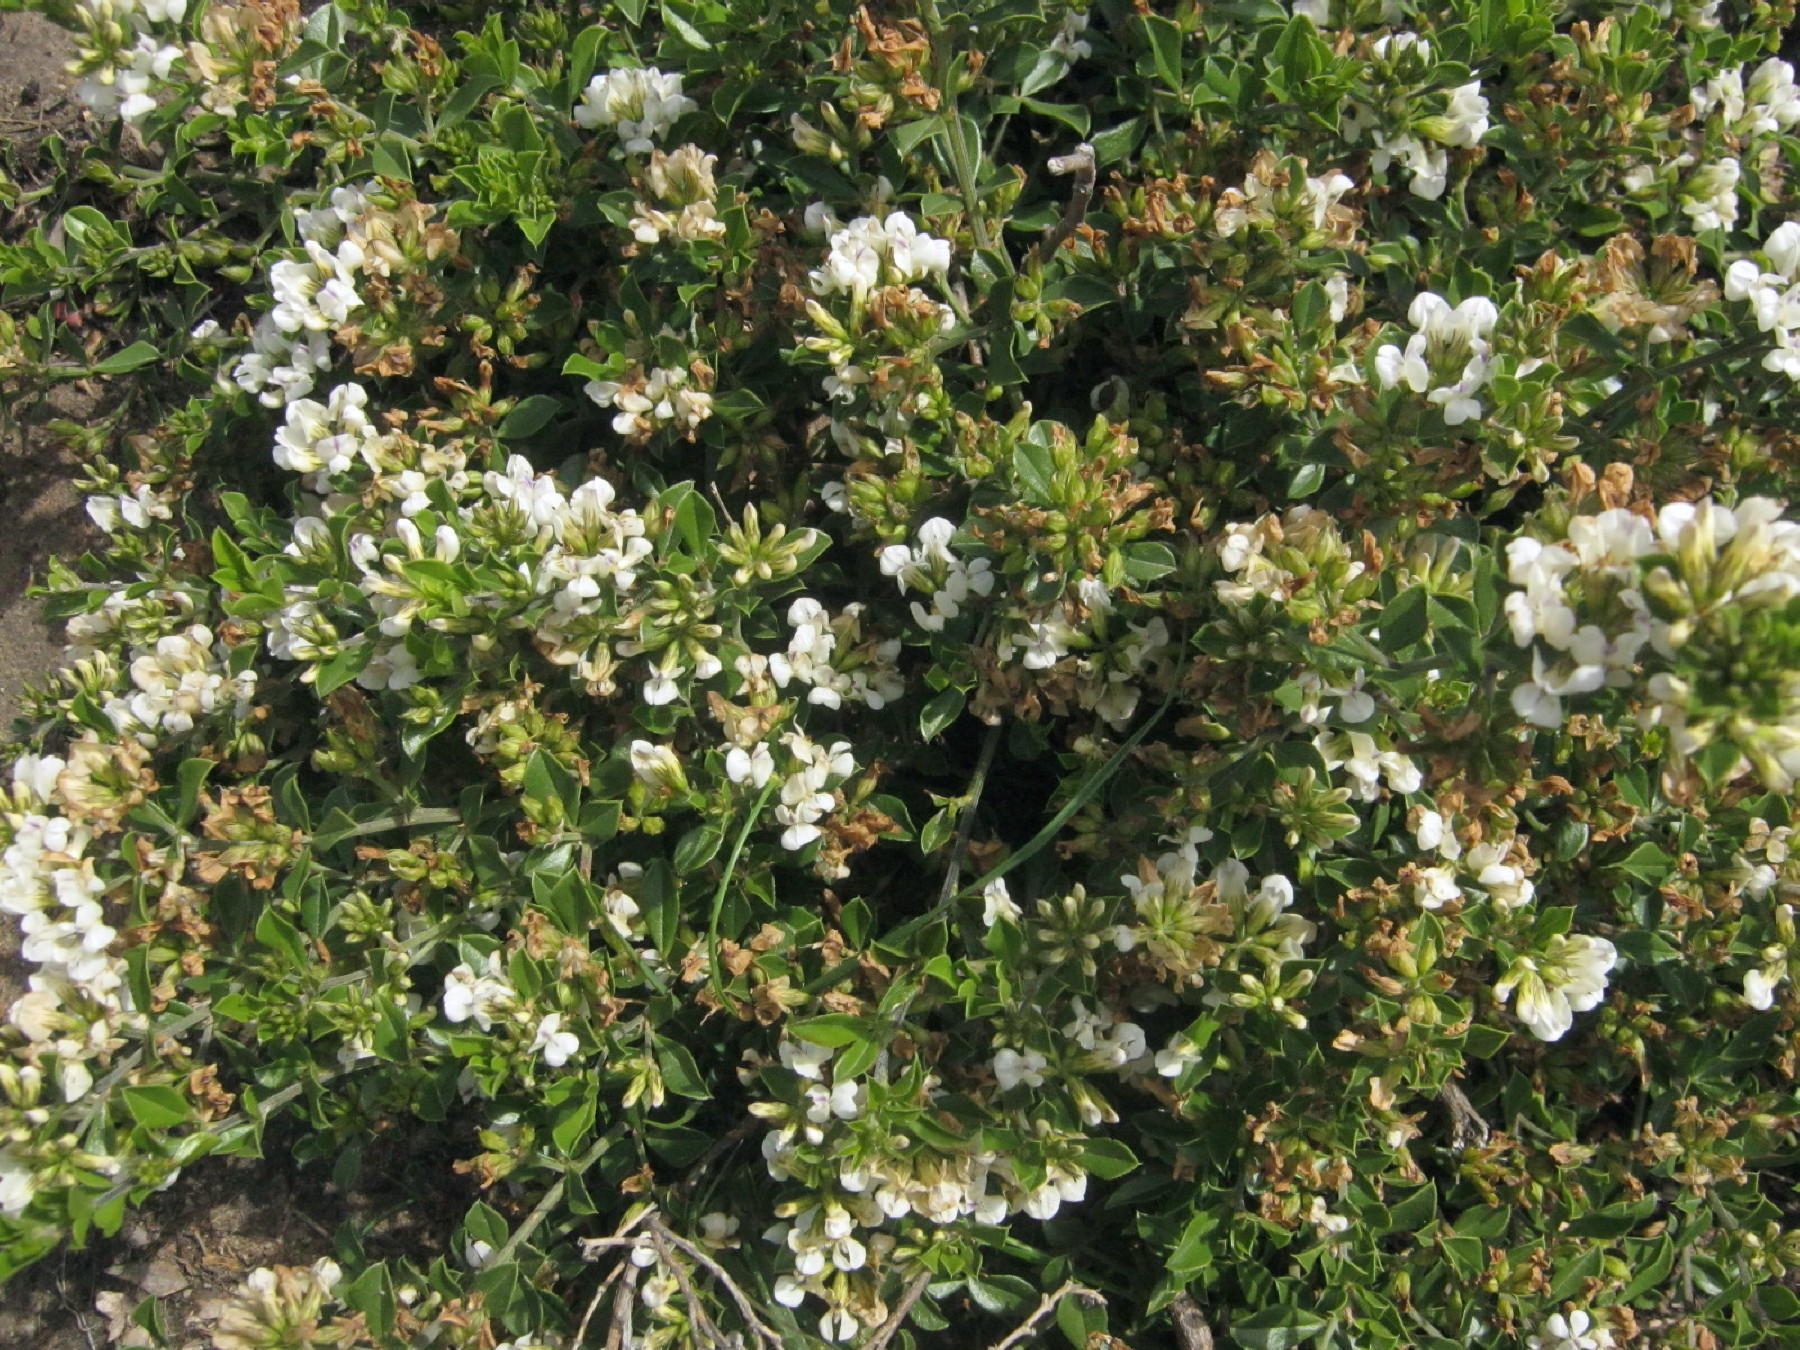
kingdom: Plantae
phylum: Tracheophyta
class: Magnoliopsida
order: Fabales
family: Fabaceae
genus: Psoralea
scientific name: Psoralea bowieana
